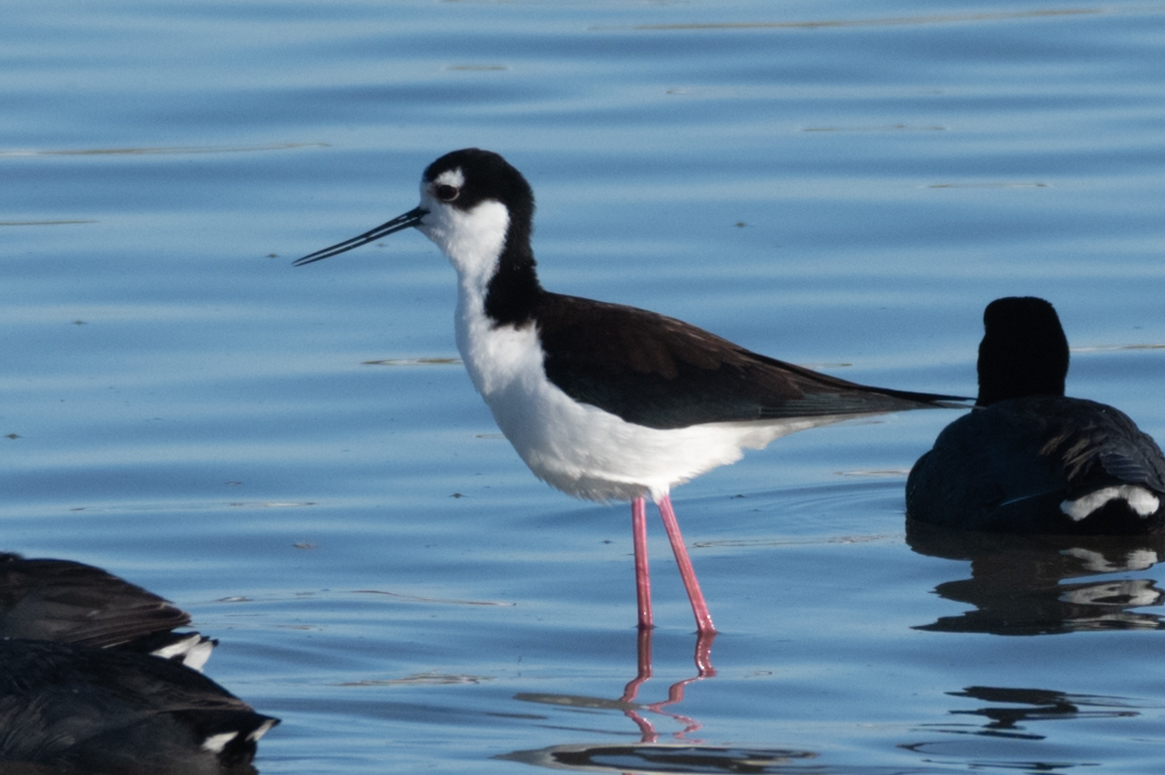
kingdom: Animalia
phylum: Chordata
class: Aves
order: Charadriiformes
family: Recurvirostridae
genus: Himantopus
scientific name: Himantopus mexicanus
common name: Black-necked stilt
